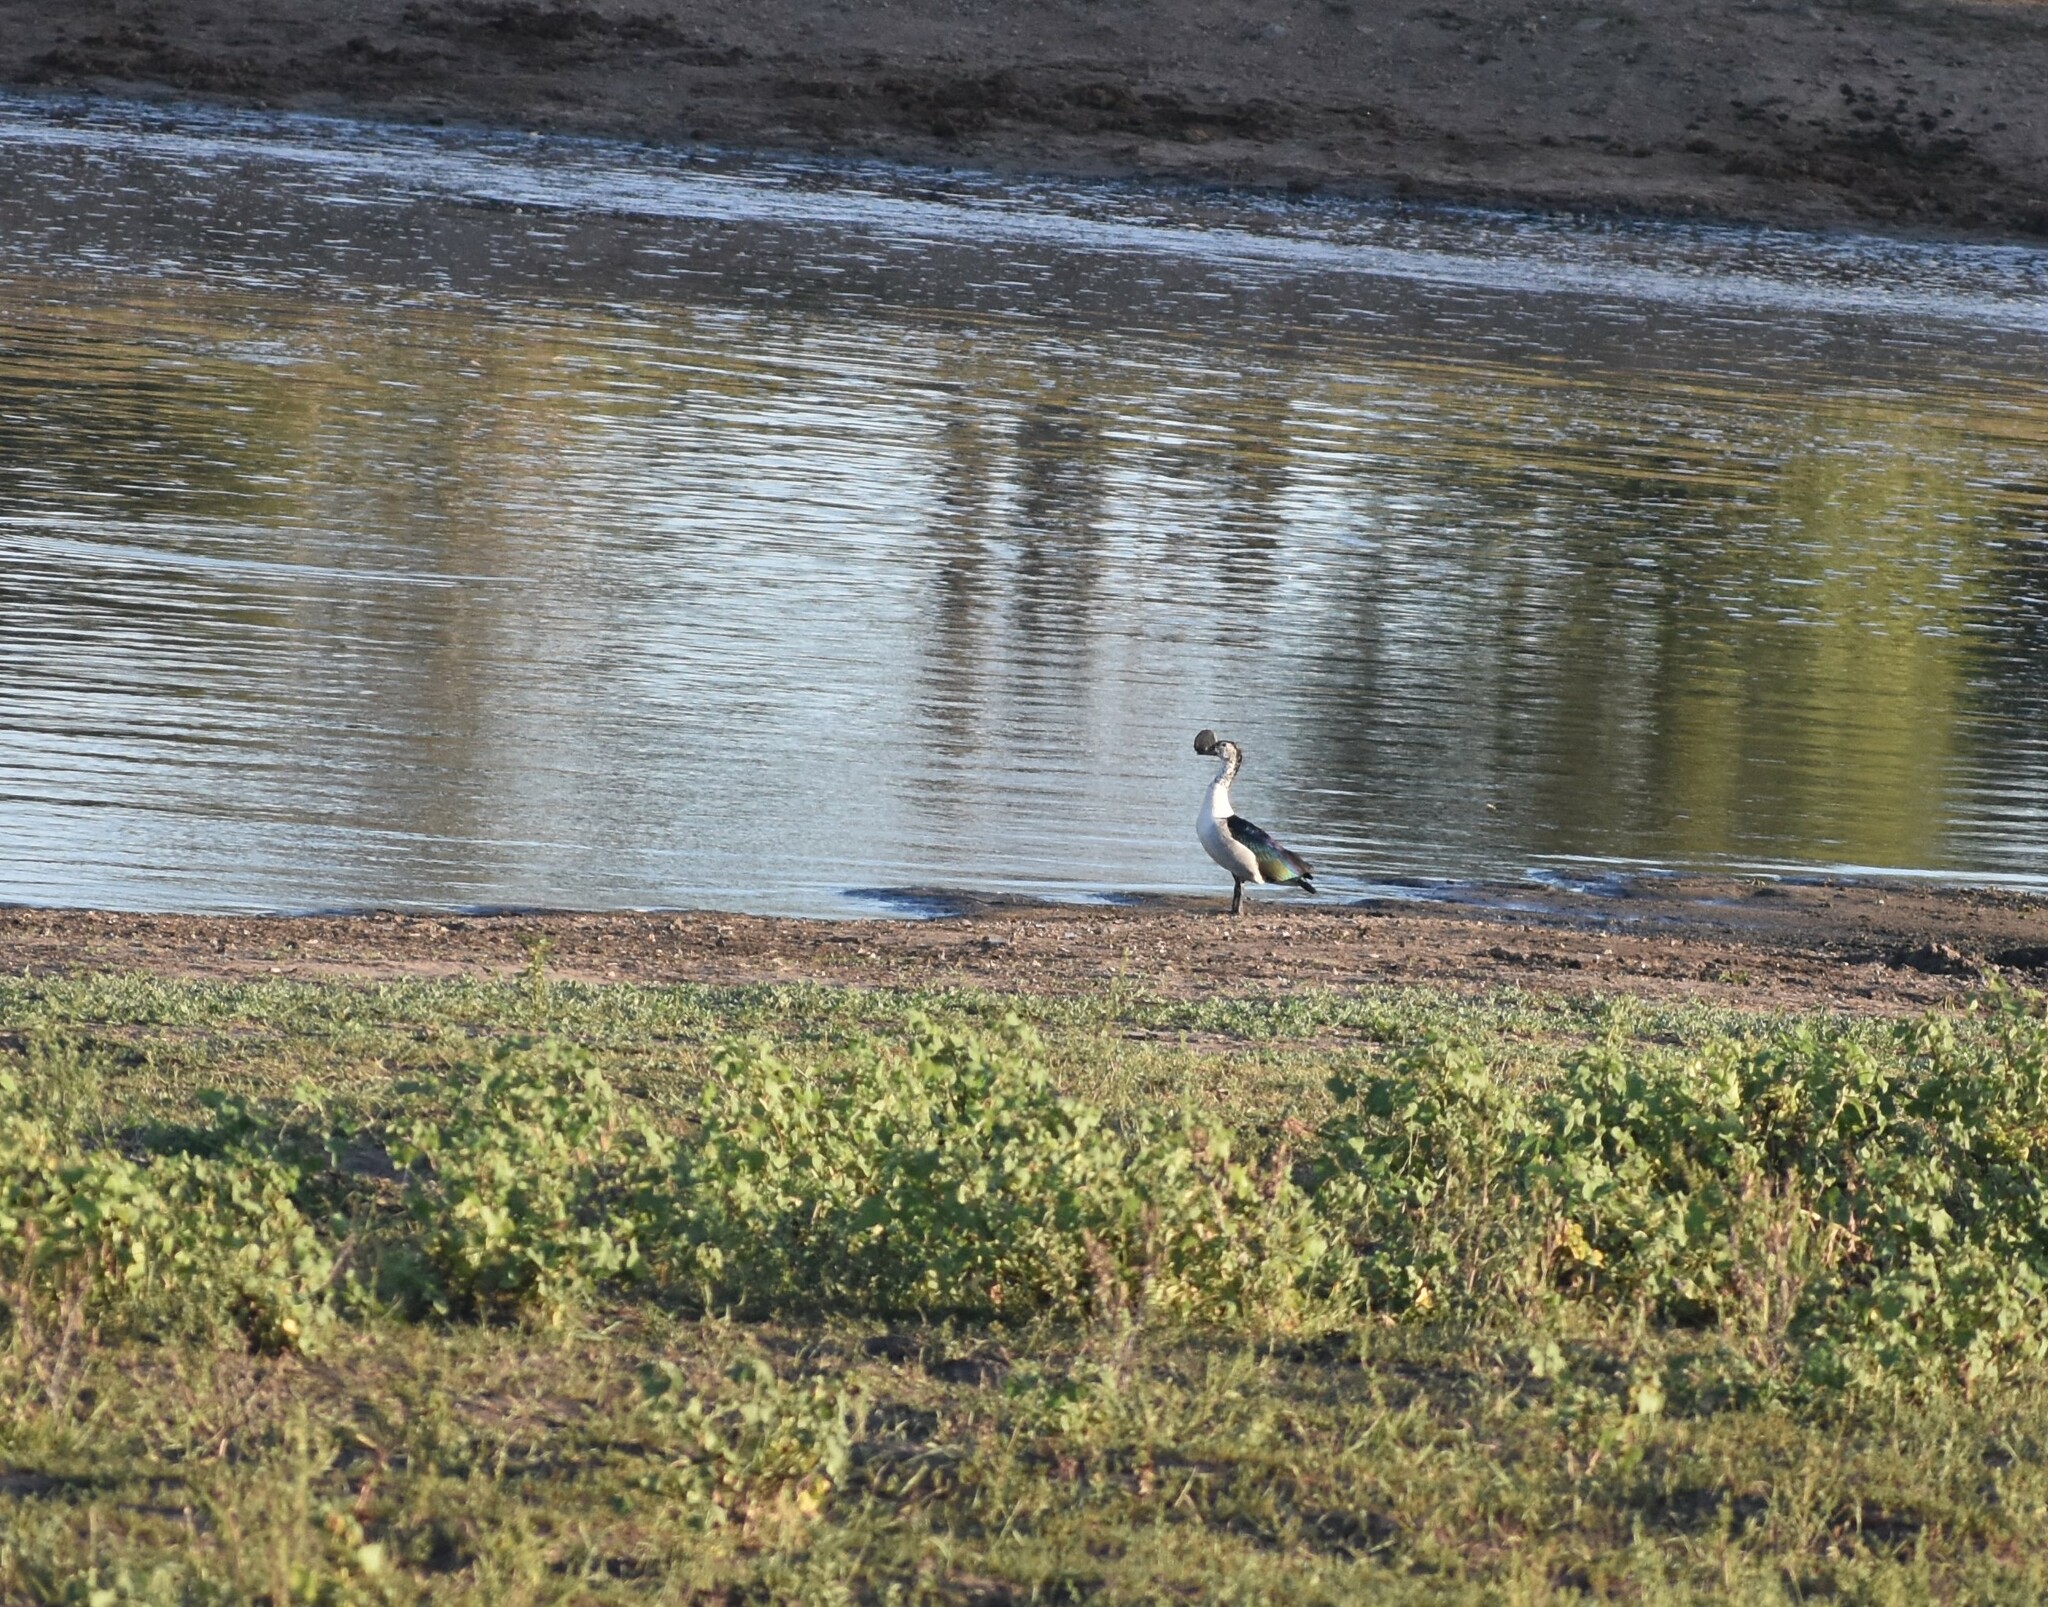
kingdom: Animalia
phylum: Chordata
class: Aves
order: Anseriformes
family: Anatidae
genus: Sarkidiornis
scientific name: Sarkidiornis melanotos
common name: Comb duck
